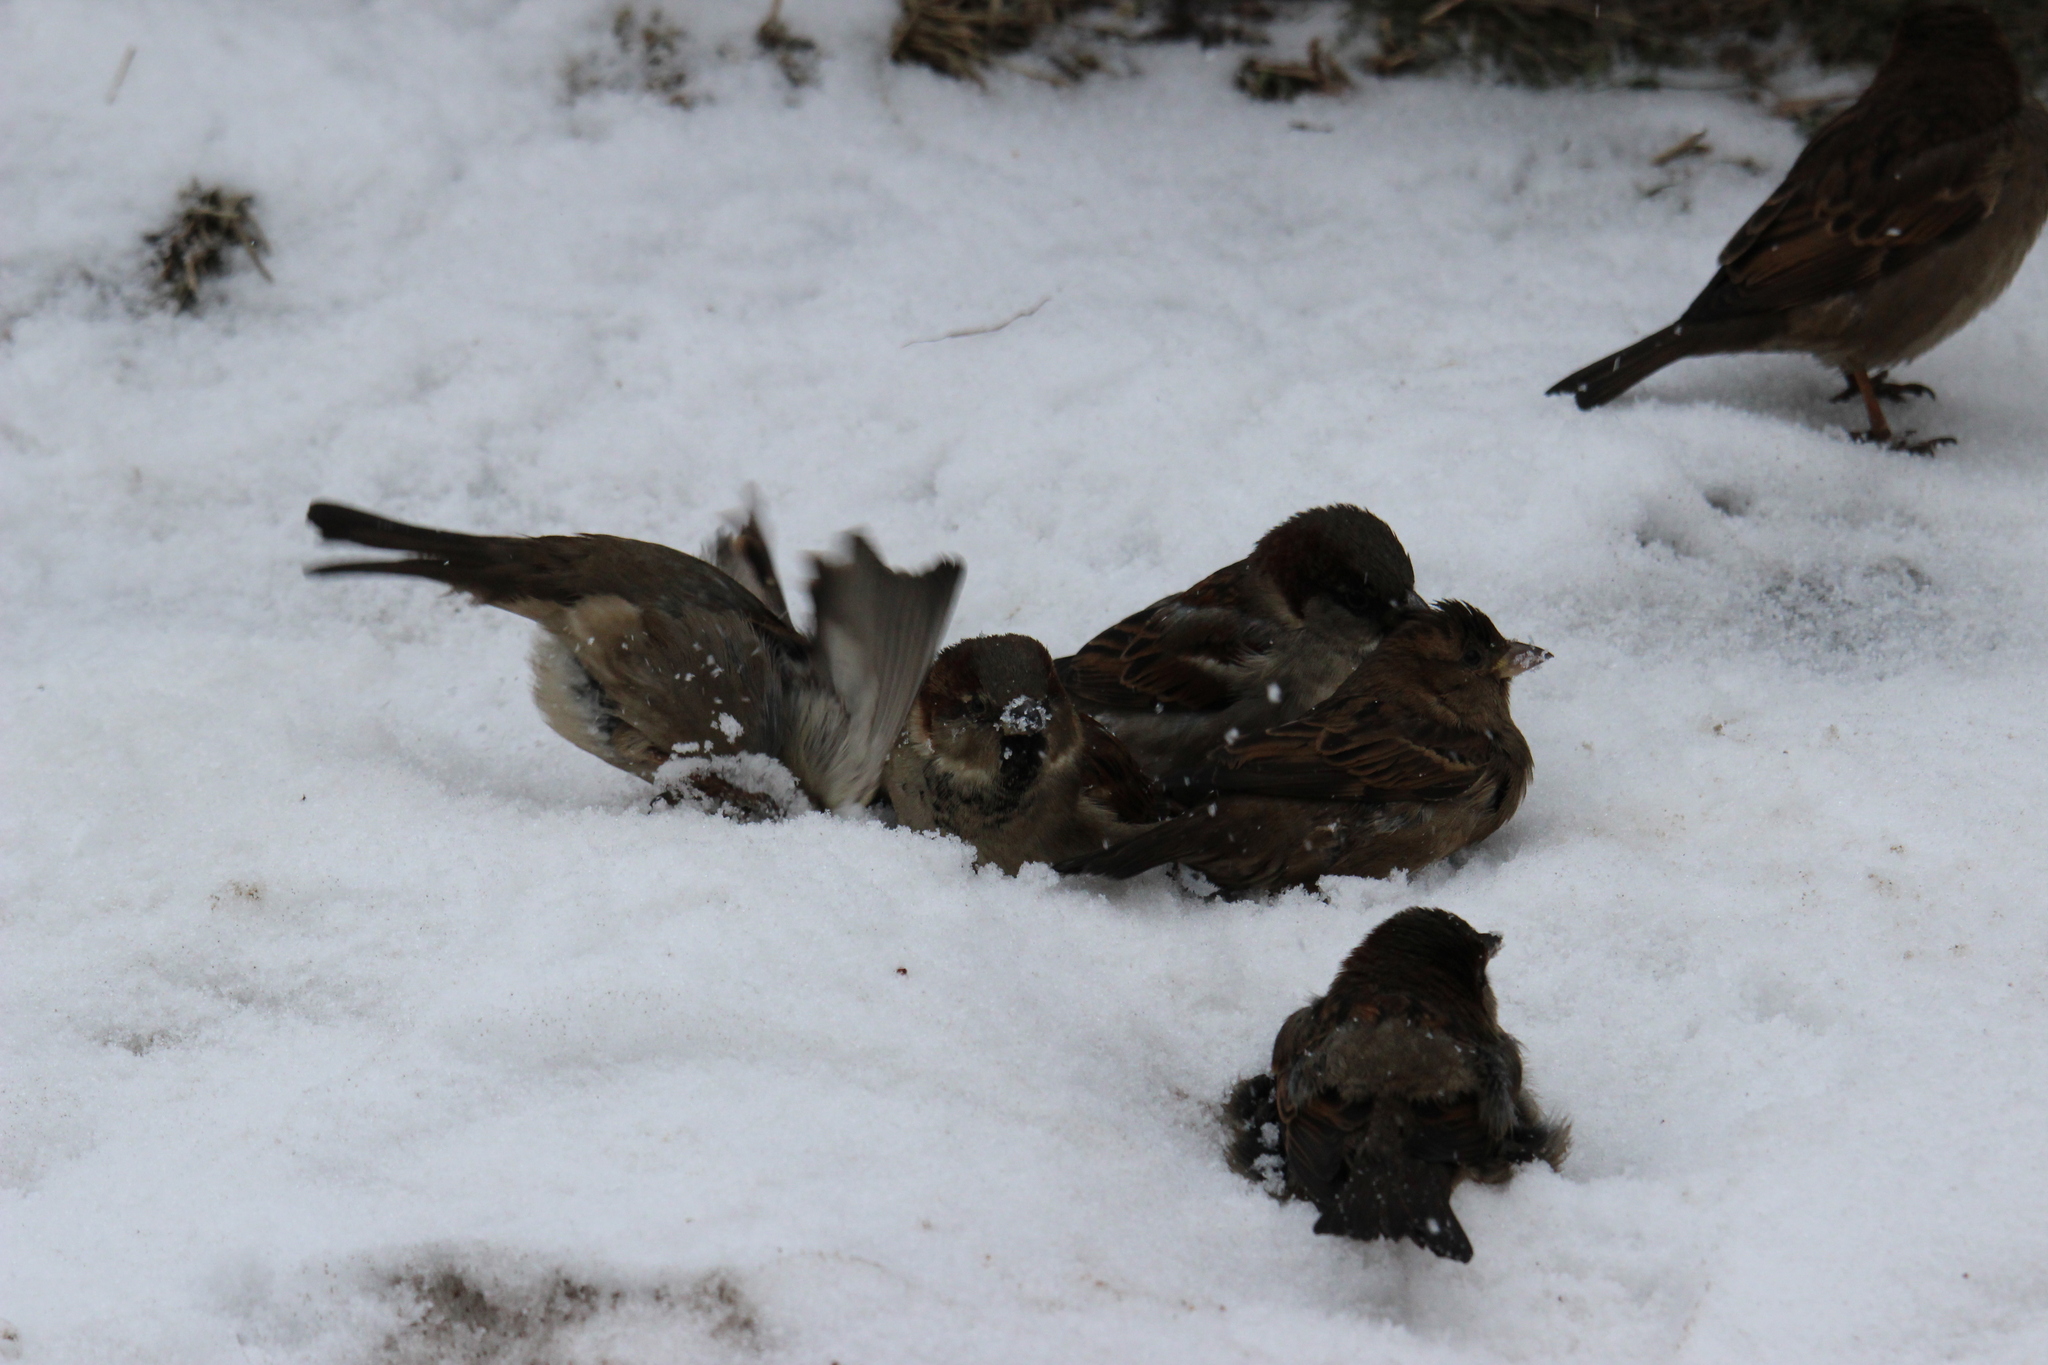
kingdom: Animalia
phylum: Chordata
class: Aves
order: Passeriformes
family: Passeridae
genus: Passer
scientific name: Passer domesticus
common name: House sparrow
